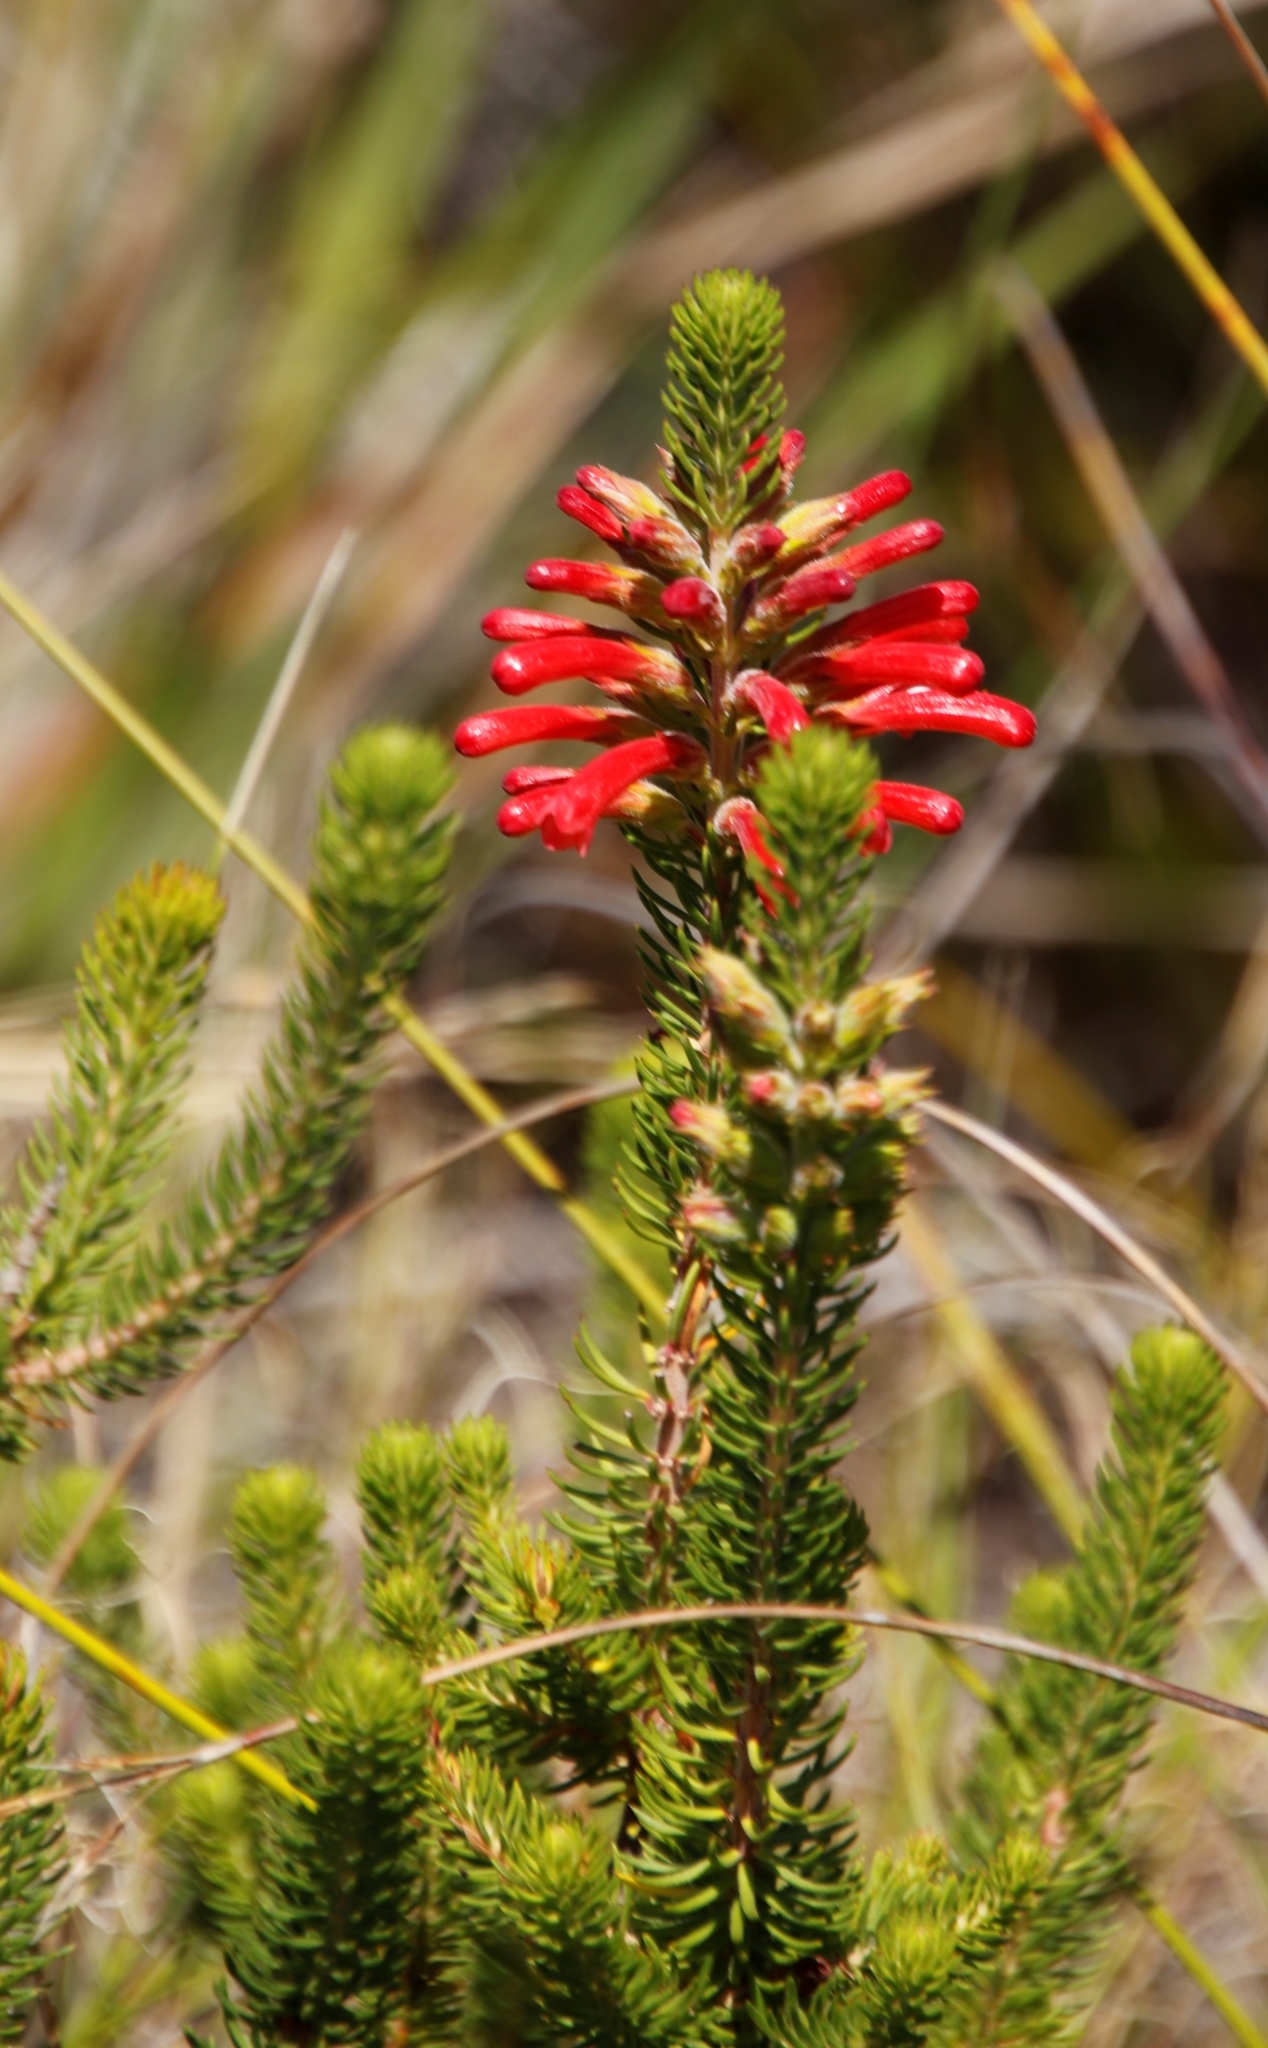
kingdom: Plantae
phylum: Tracheophyta
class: Magnoliopsida
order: Ericales
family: Ericaceae
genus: Erica
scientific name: Erica abietina
